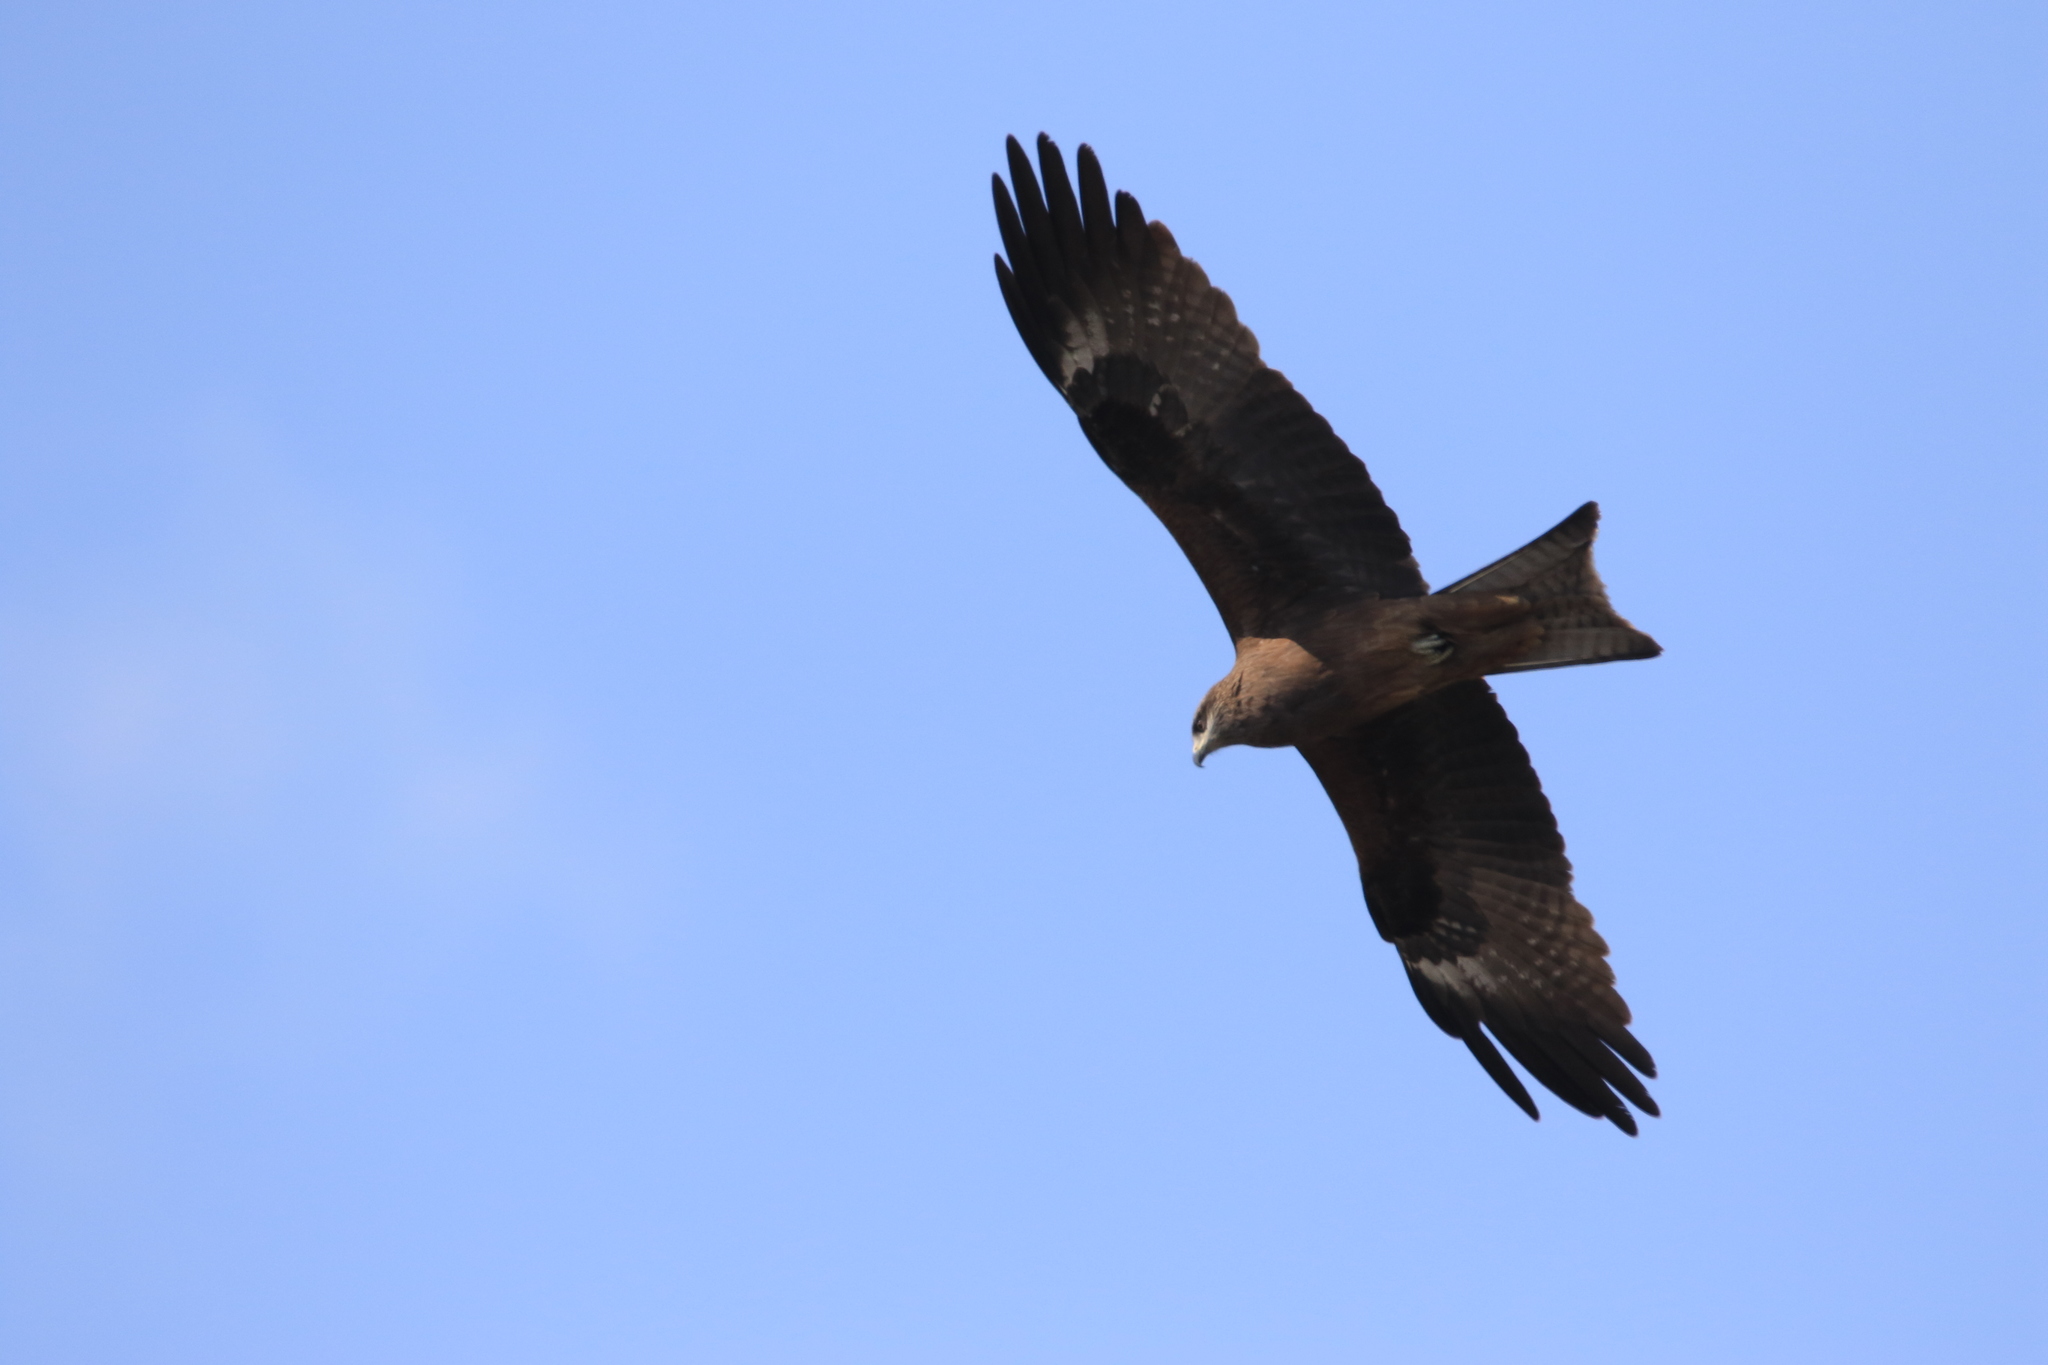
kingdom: Animalia
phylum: Chordata
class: Aves
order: Accipitriformes
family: Accipitridae
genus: Milvus
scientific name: Milvus migrans
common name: Black kite
